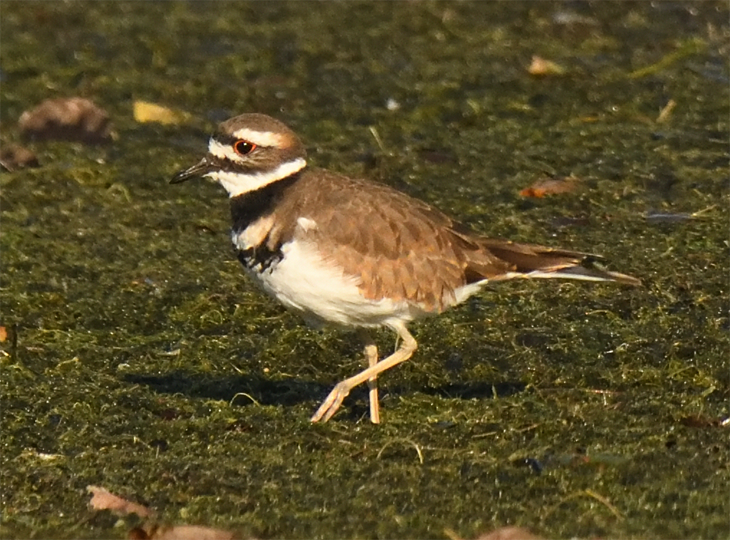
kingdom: Animalia
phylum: Chordata
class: Aves
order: Charadriiformes
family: Charadriidae
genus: Charadrius
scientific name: Charadrius vociferus
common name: Killdeer
